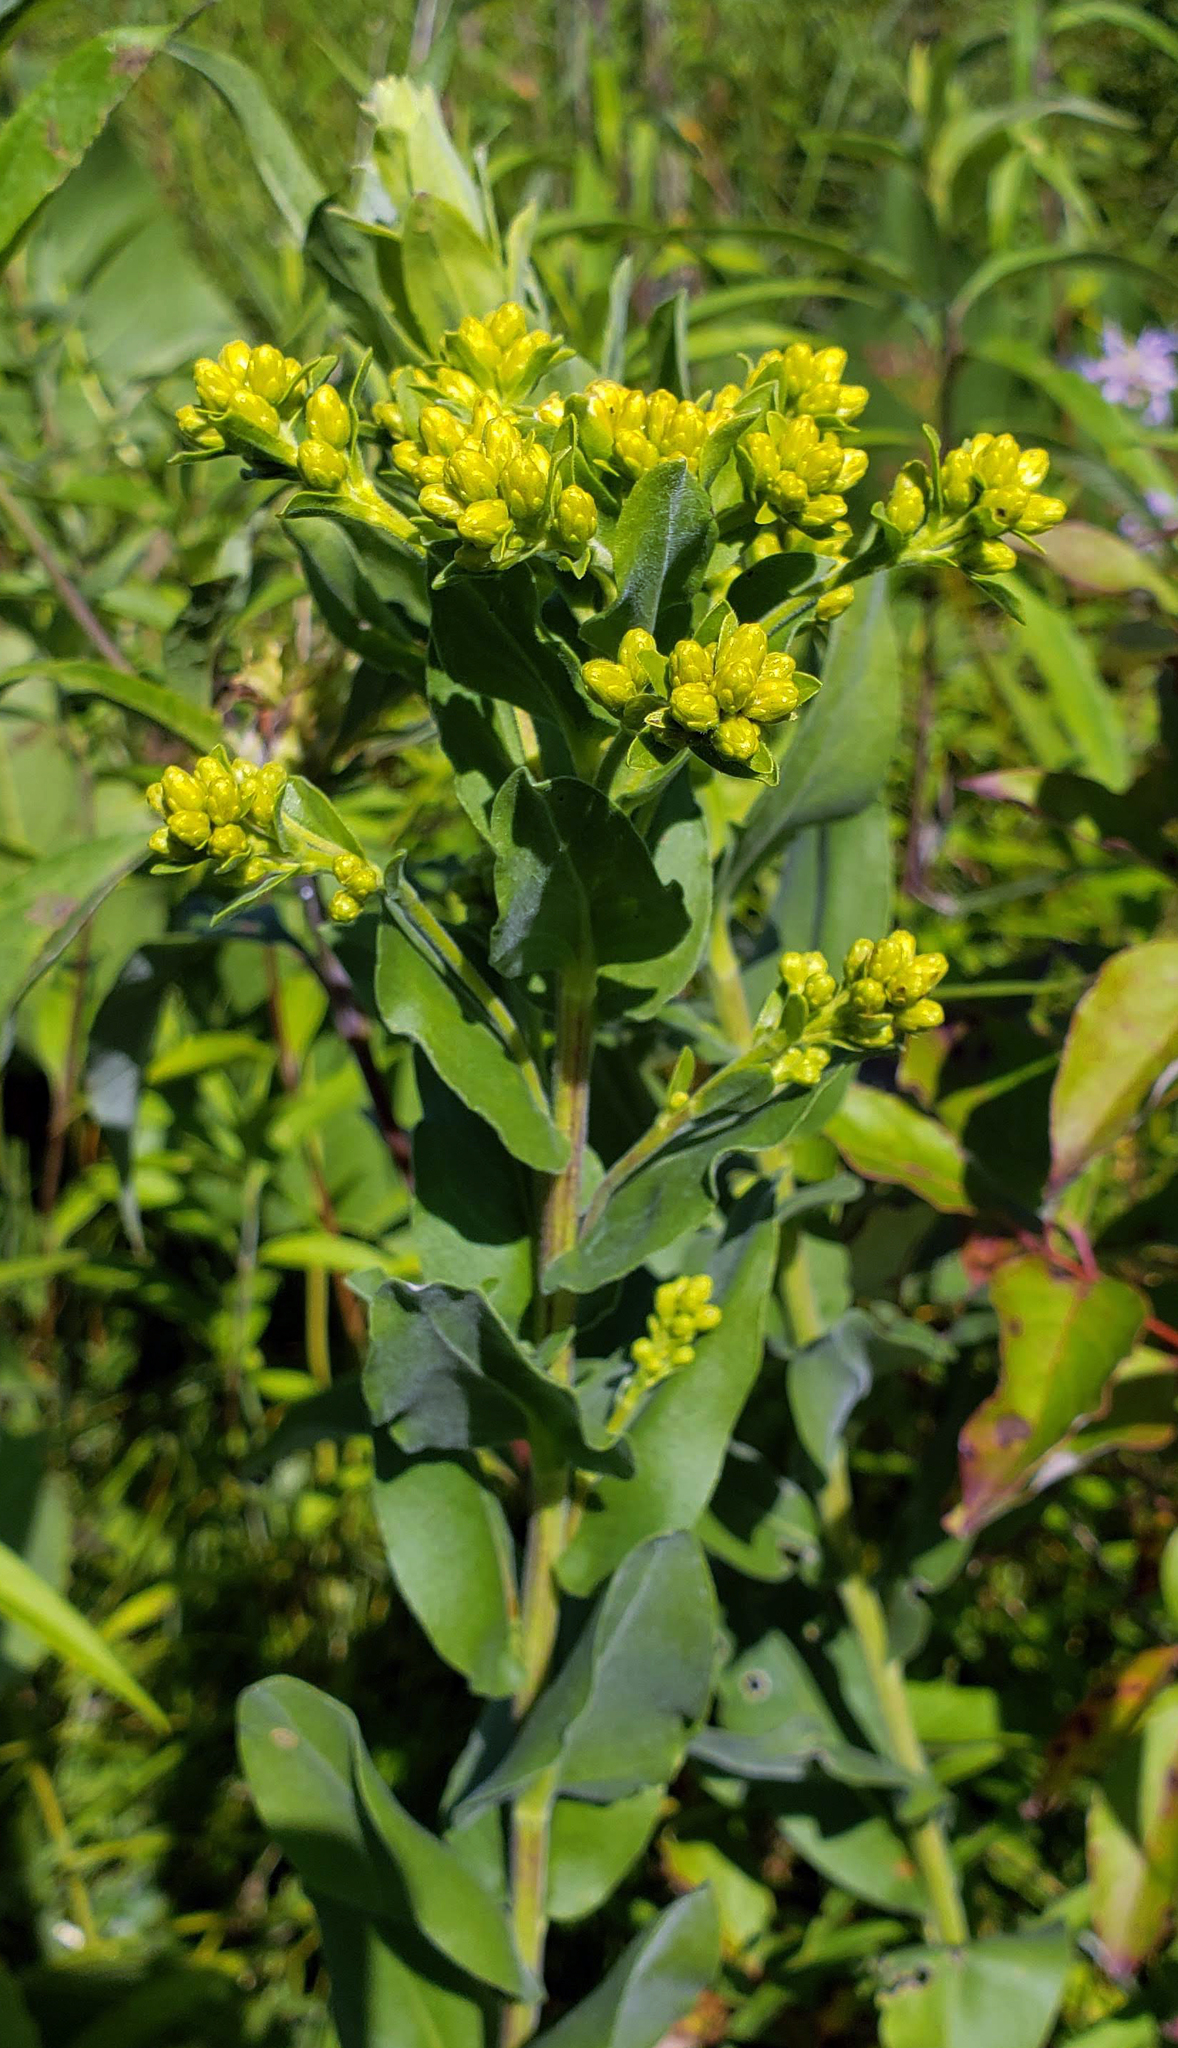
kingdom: Plantae
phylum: Tracheophyta
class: Magnoliopsida
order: Asterales
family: Asteraceae
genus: Solidago
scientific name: Solidago rigida
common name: Rigid goldenrod
